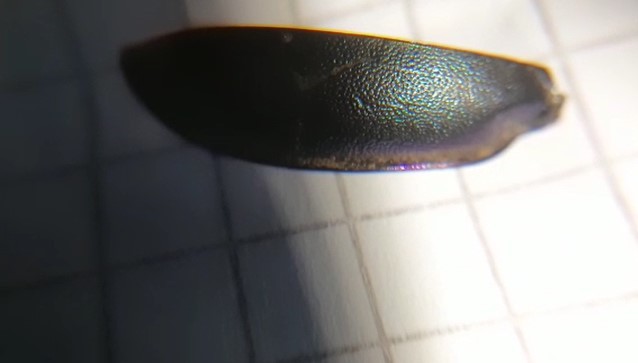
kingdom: Animalia
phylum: Arthropoda
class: Insecta
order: Coleoptera
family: Carabidae
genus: Carabus
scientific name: Carabus germarii
